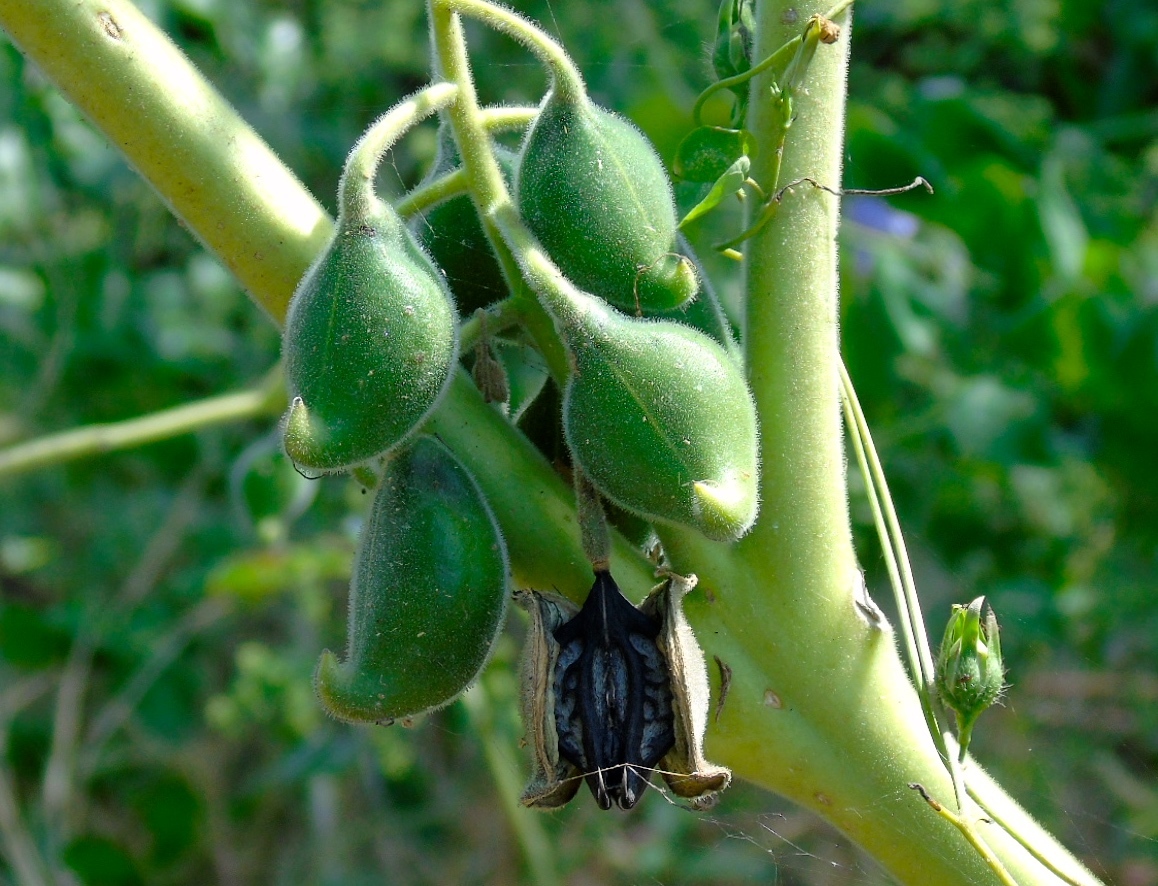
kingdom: Plantae
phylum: Tracheophyta
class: Magnoliopsida
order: Lamiales
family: Martyniaceae
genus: Martynia
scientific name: Martynia annua
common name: Tiger's-claw
